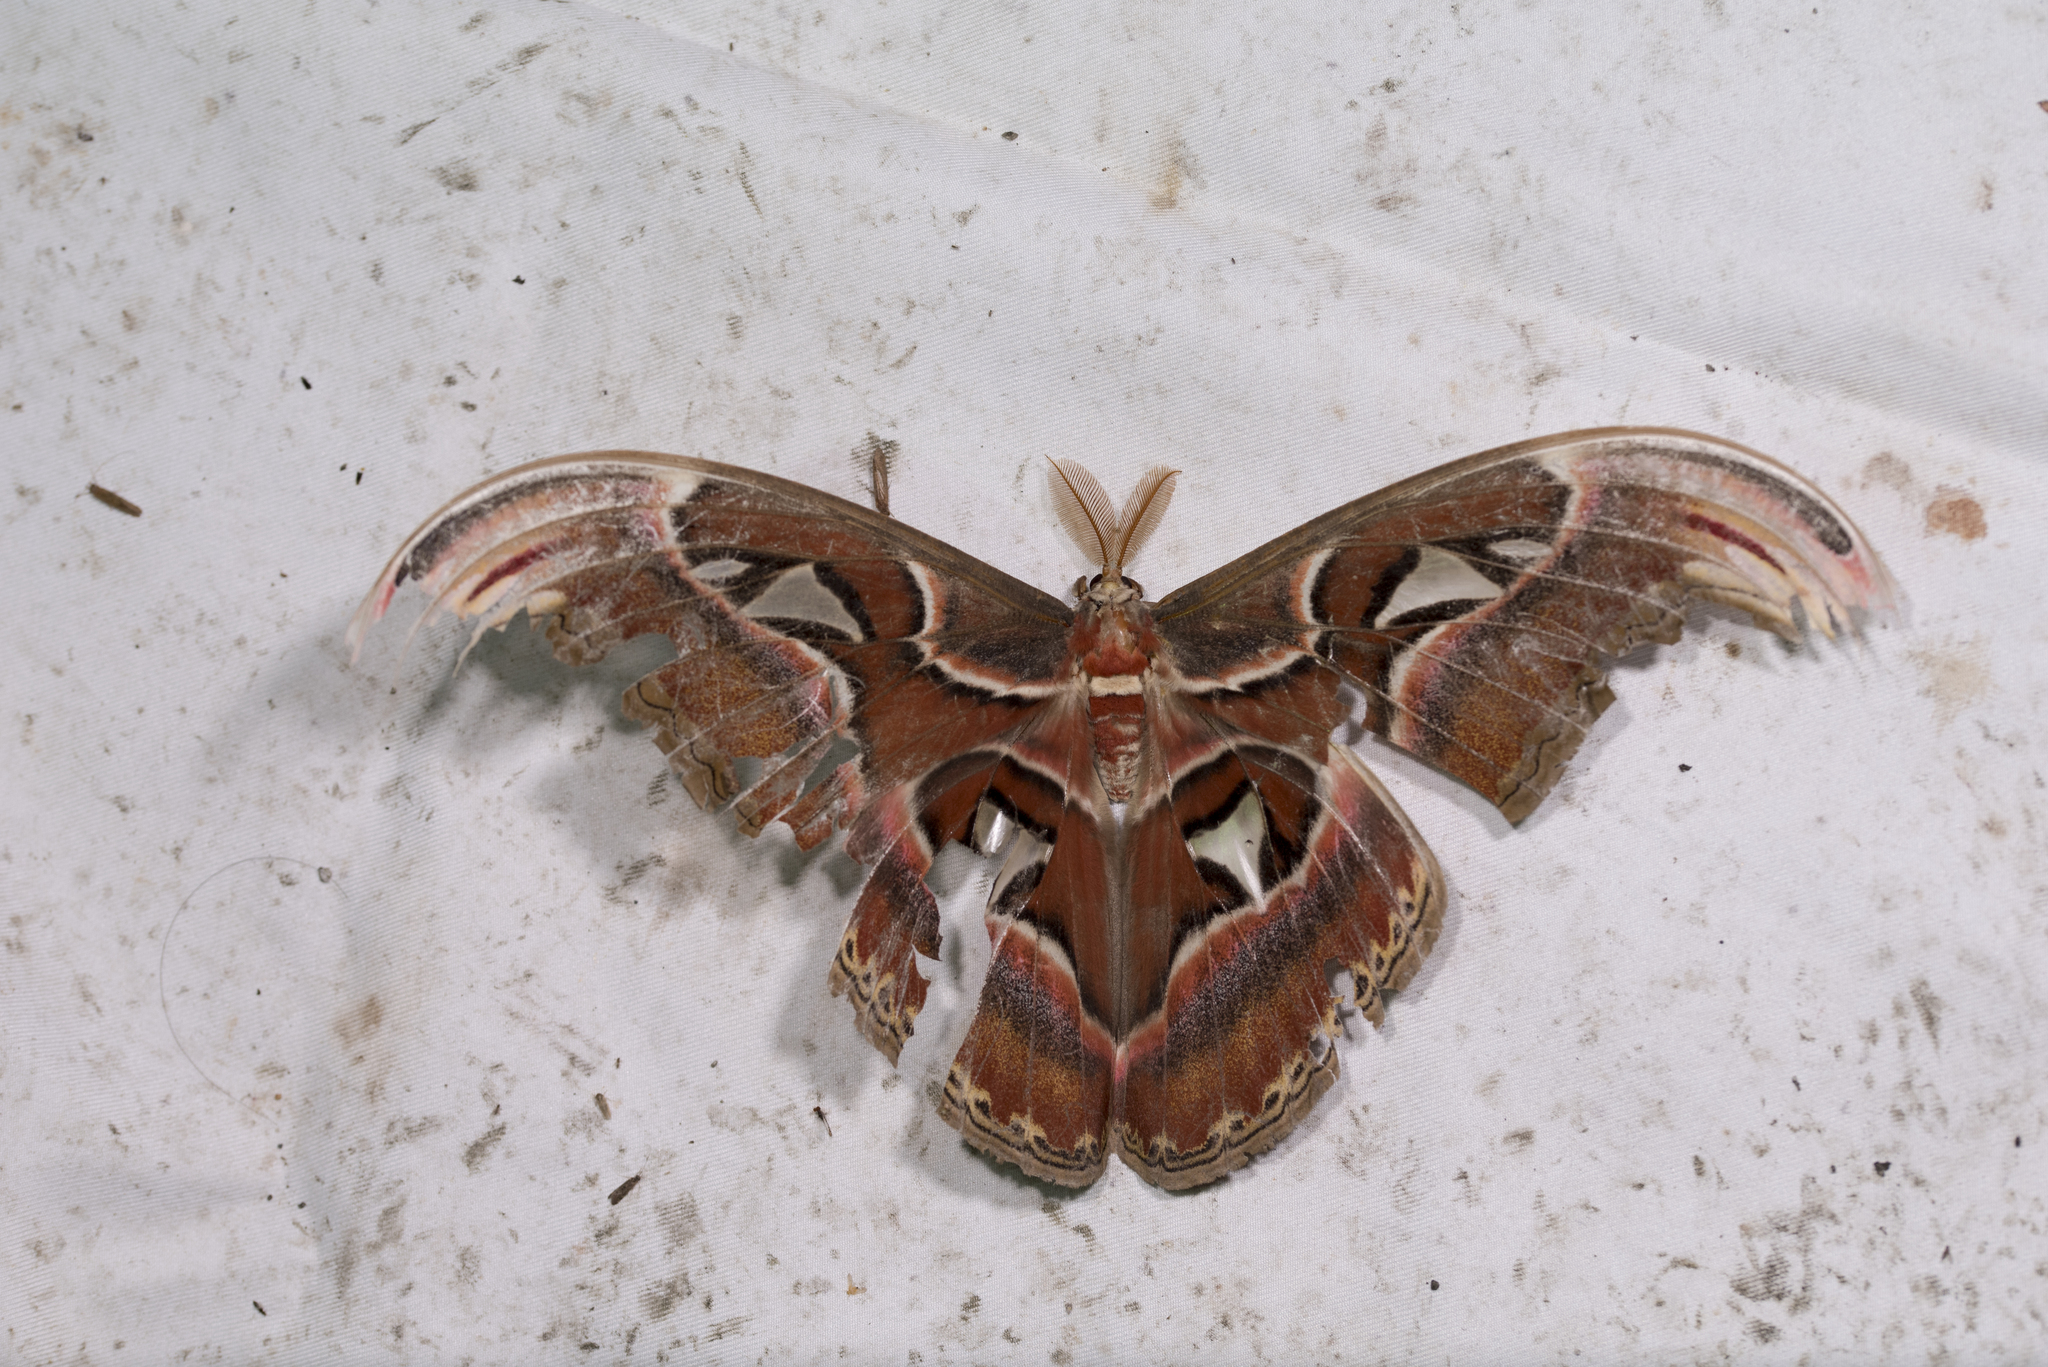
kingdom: Animalia
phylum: Arthropoda
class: Insecta
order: Lepidoptera
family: Saturniidae
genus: Attacus
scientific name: Attacus atlas
